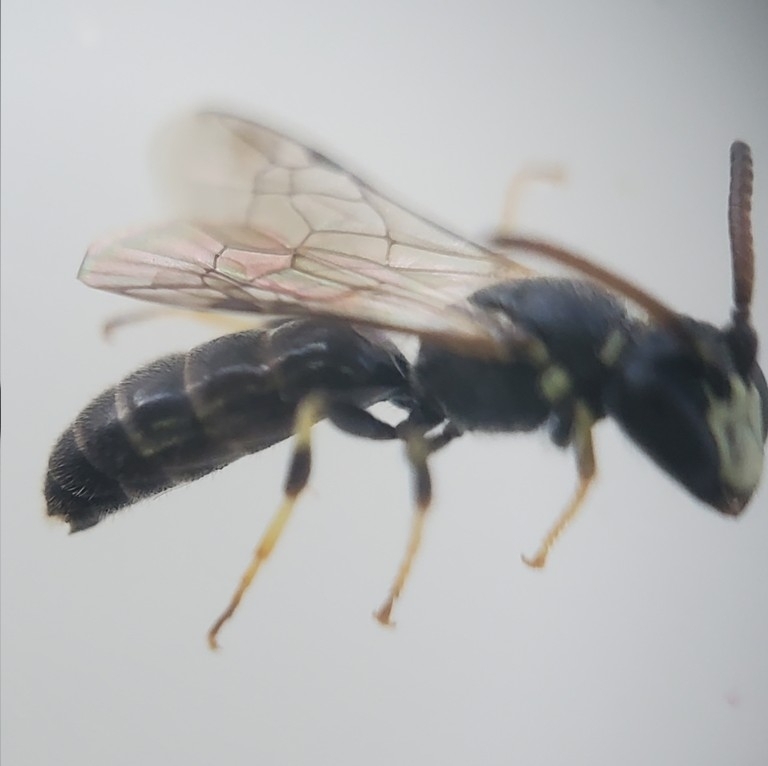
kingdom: Animalia
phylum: Arthropoda
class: Insecta
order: Hymenoptera
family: Colletidae
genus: Hylaeus
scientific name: Hylaeus
